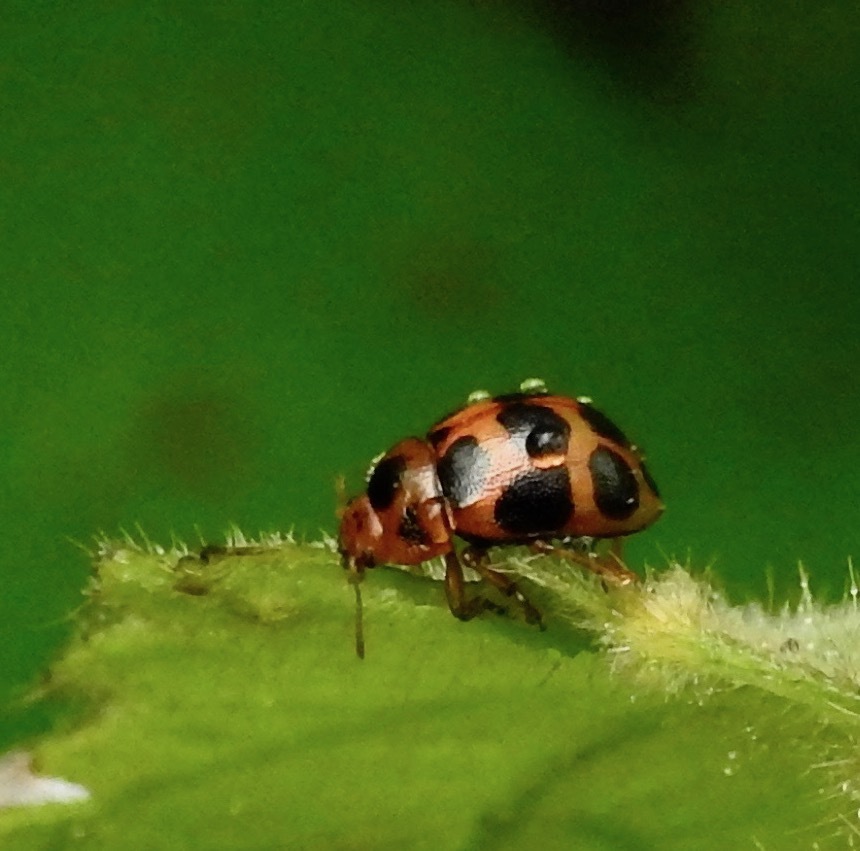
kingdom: Animalia
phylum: Arthropoda
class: Insecta
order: Coleoptera
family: Chrysomelidae
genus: Gonioctena
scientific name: Gonioctena tredecimmaculata
